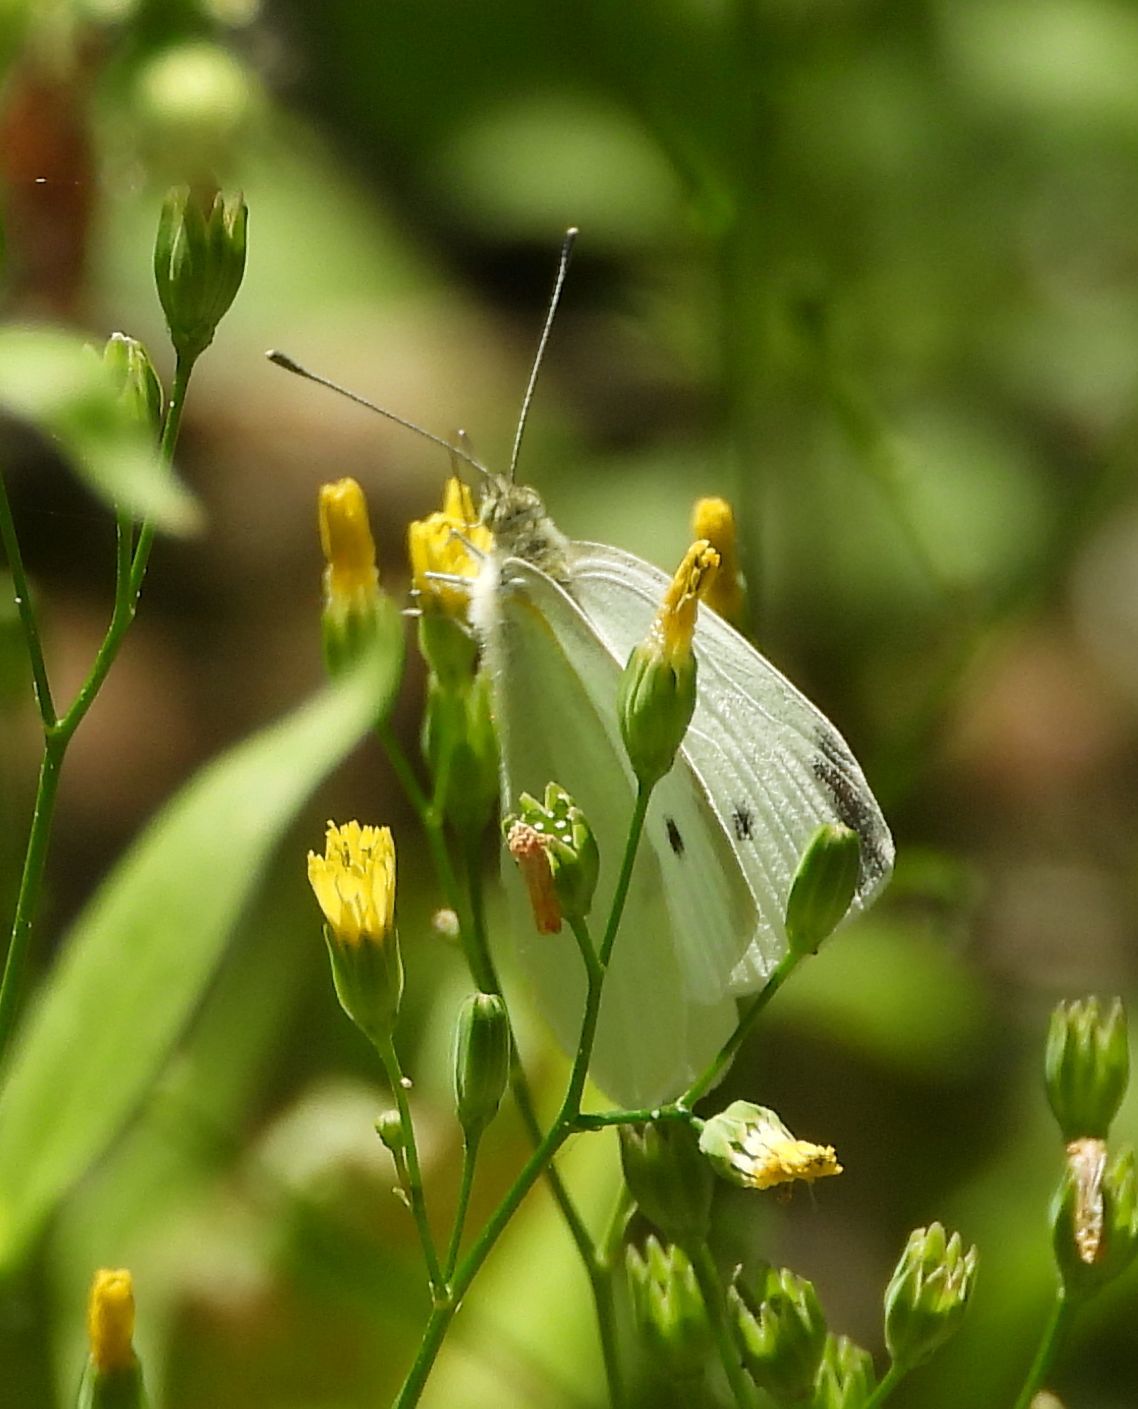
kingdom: Animalia
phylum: Arthropoda
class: Insecta
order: Lepidoptera
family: Pieridae
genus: Pieris
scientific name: Pieris rapae
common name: Small white
